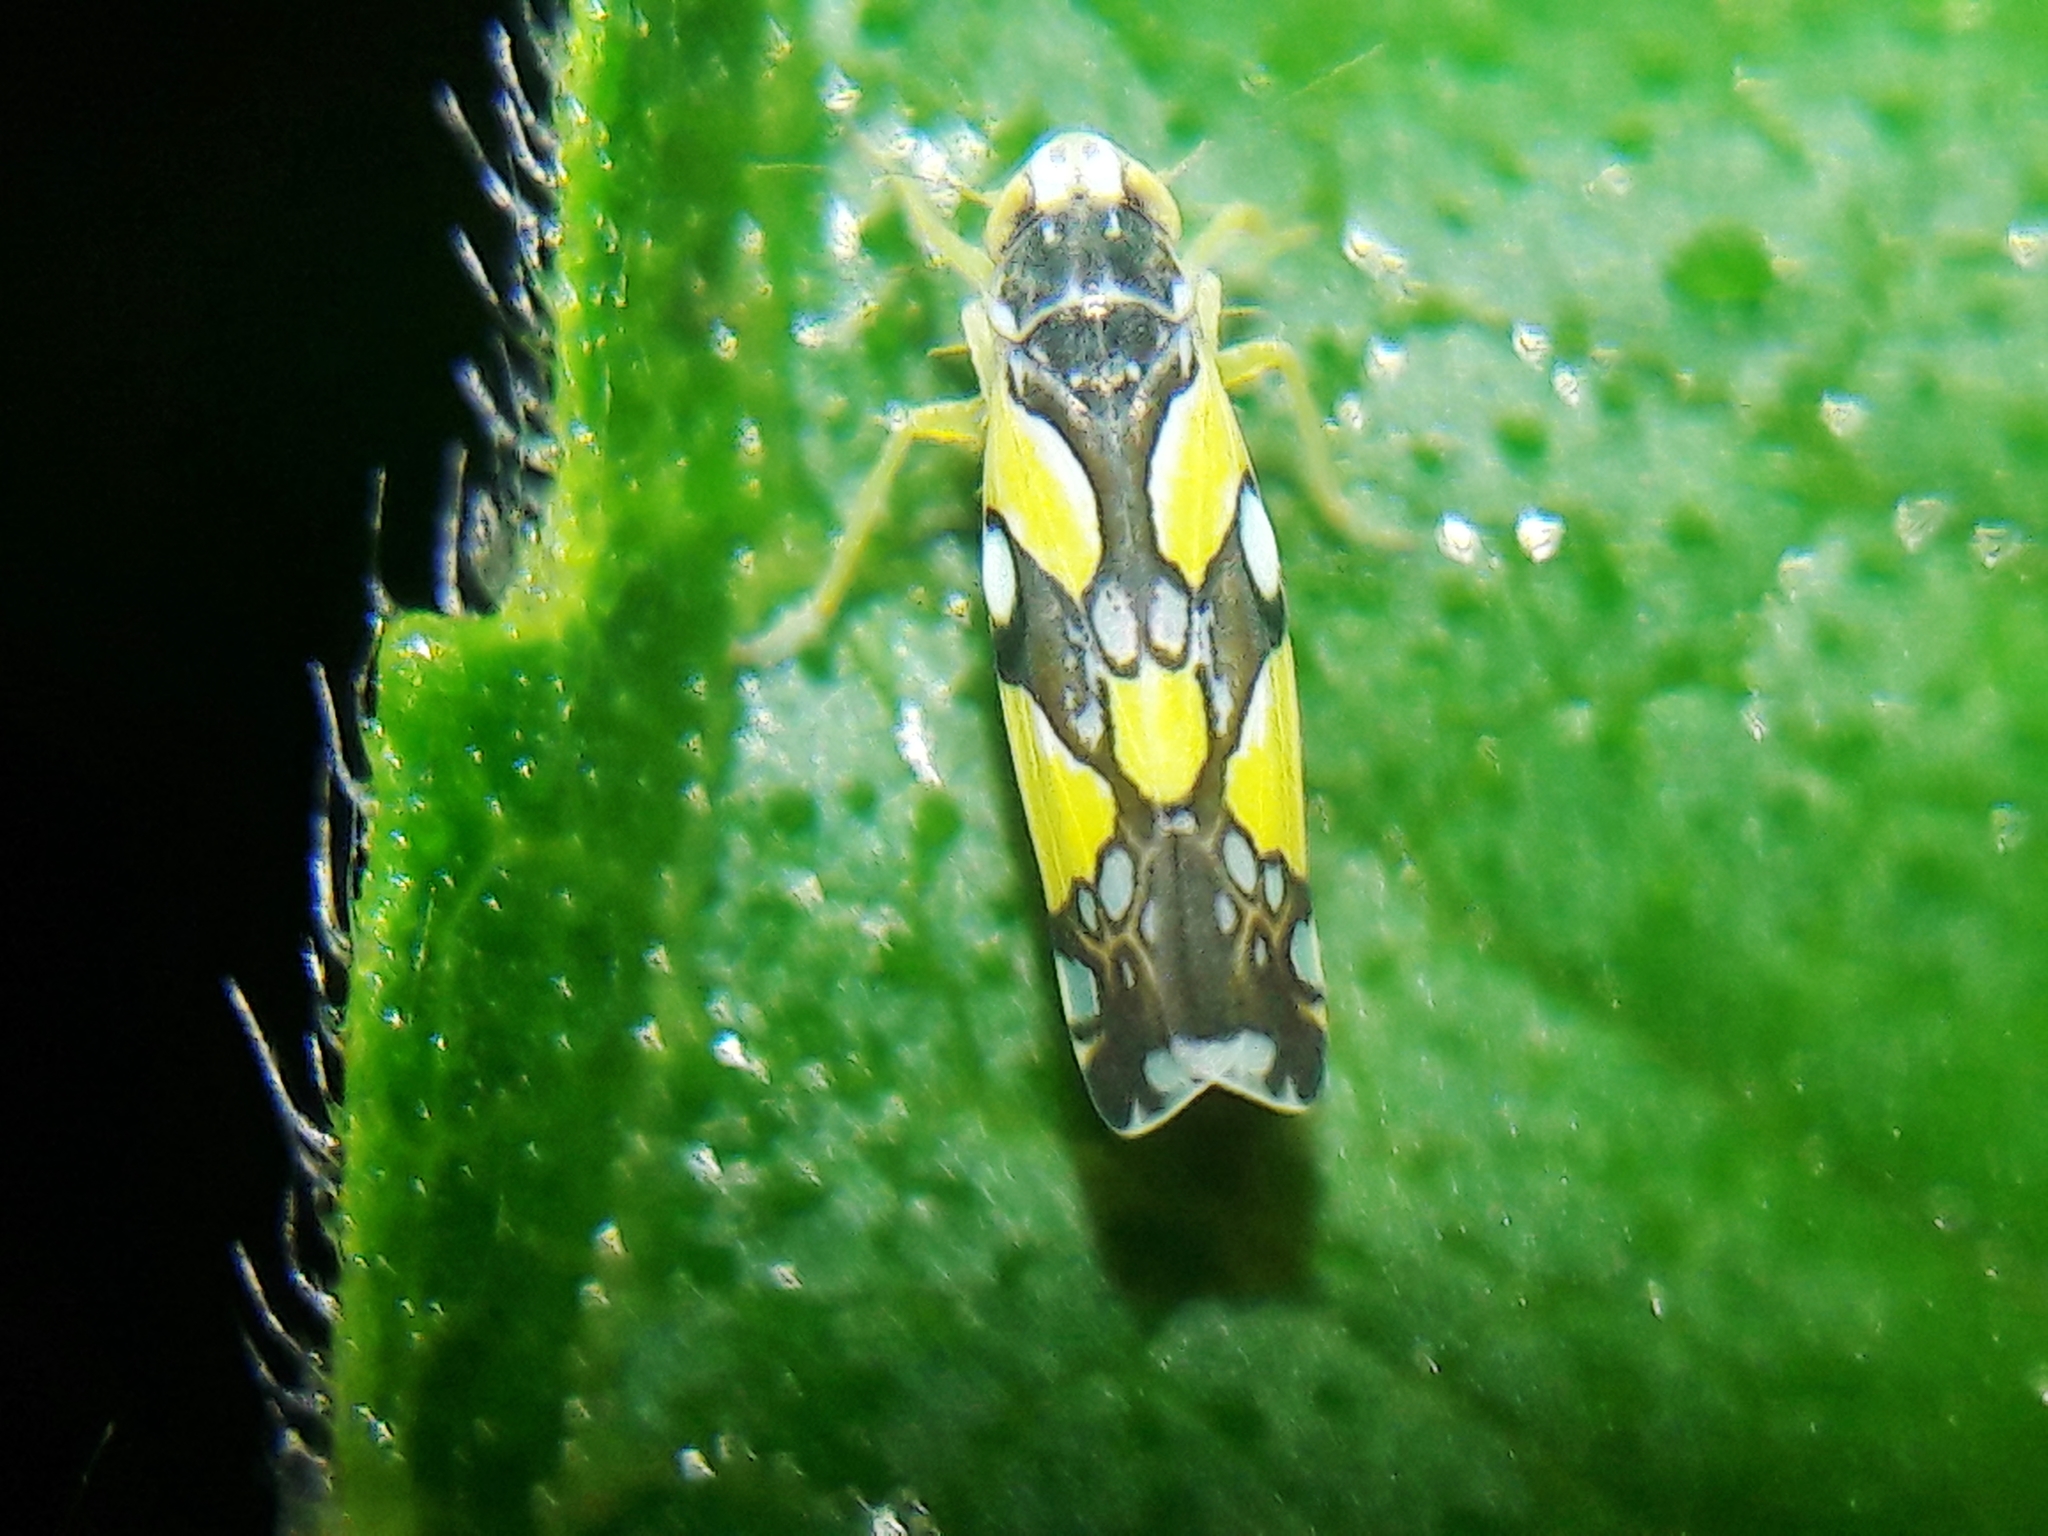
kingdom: Animalia
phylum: Arthropoda
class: Insecta
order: Hemiptera
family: Cicadellidae
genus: Protalebrella
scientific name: Protalebrella brasiliensis
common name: Brasilian leafhopper
